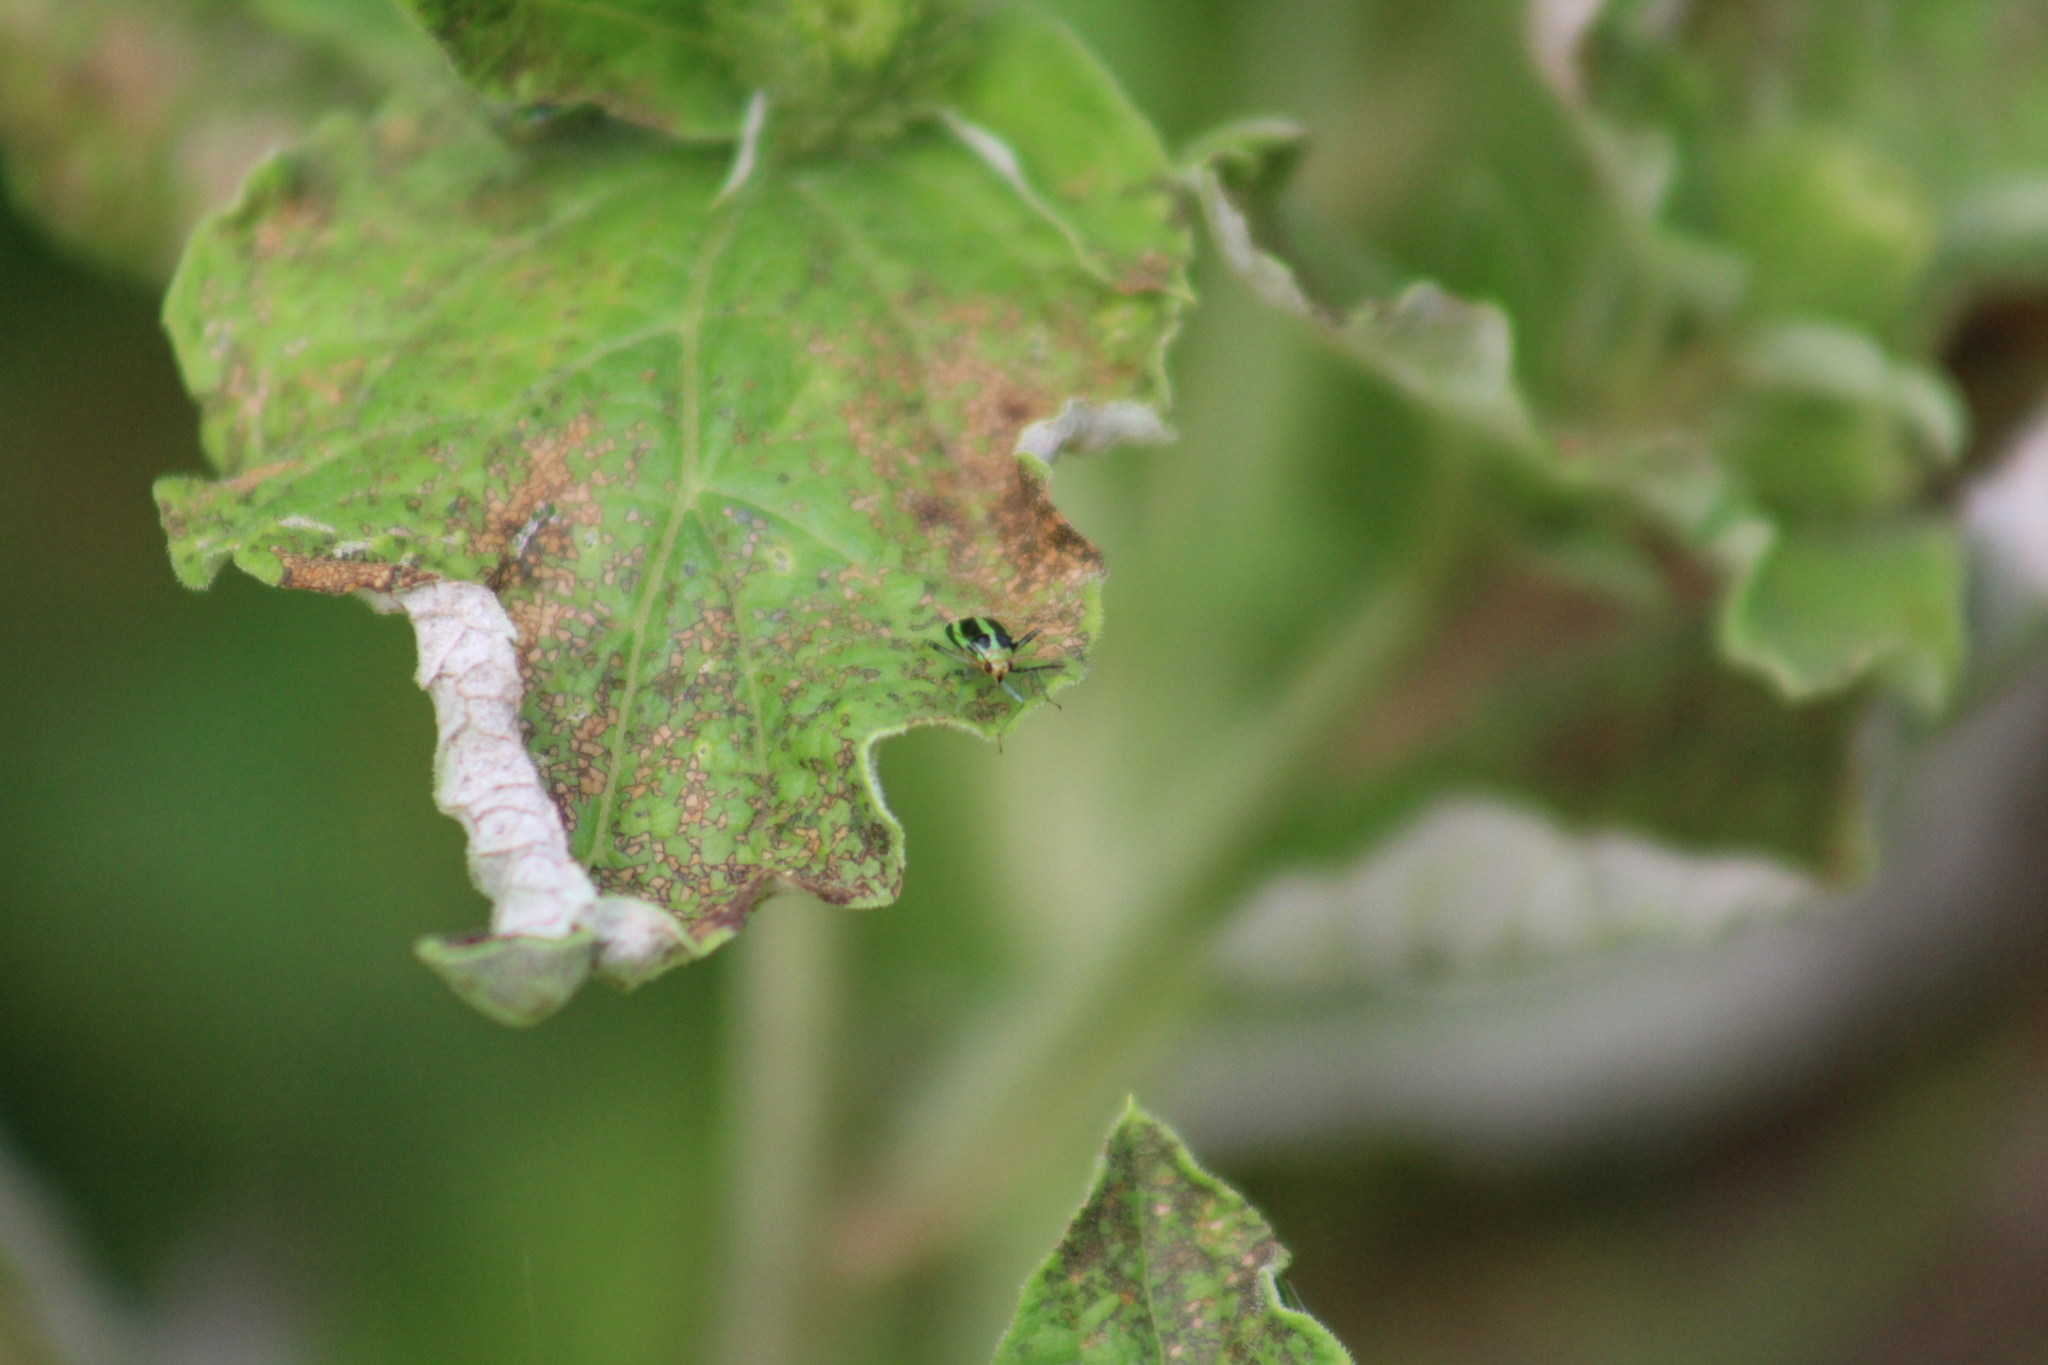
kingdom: Animalia
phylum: Arthropoda
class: Insecta
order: Hemiptera
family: Miridae
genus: Poecilocapsus
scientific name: Poecilocapsus lineatus
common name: Four-lined plant bug
